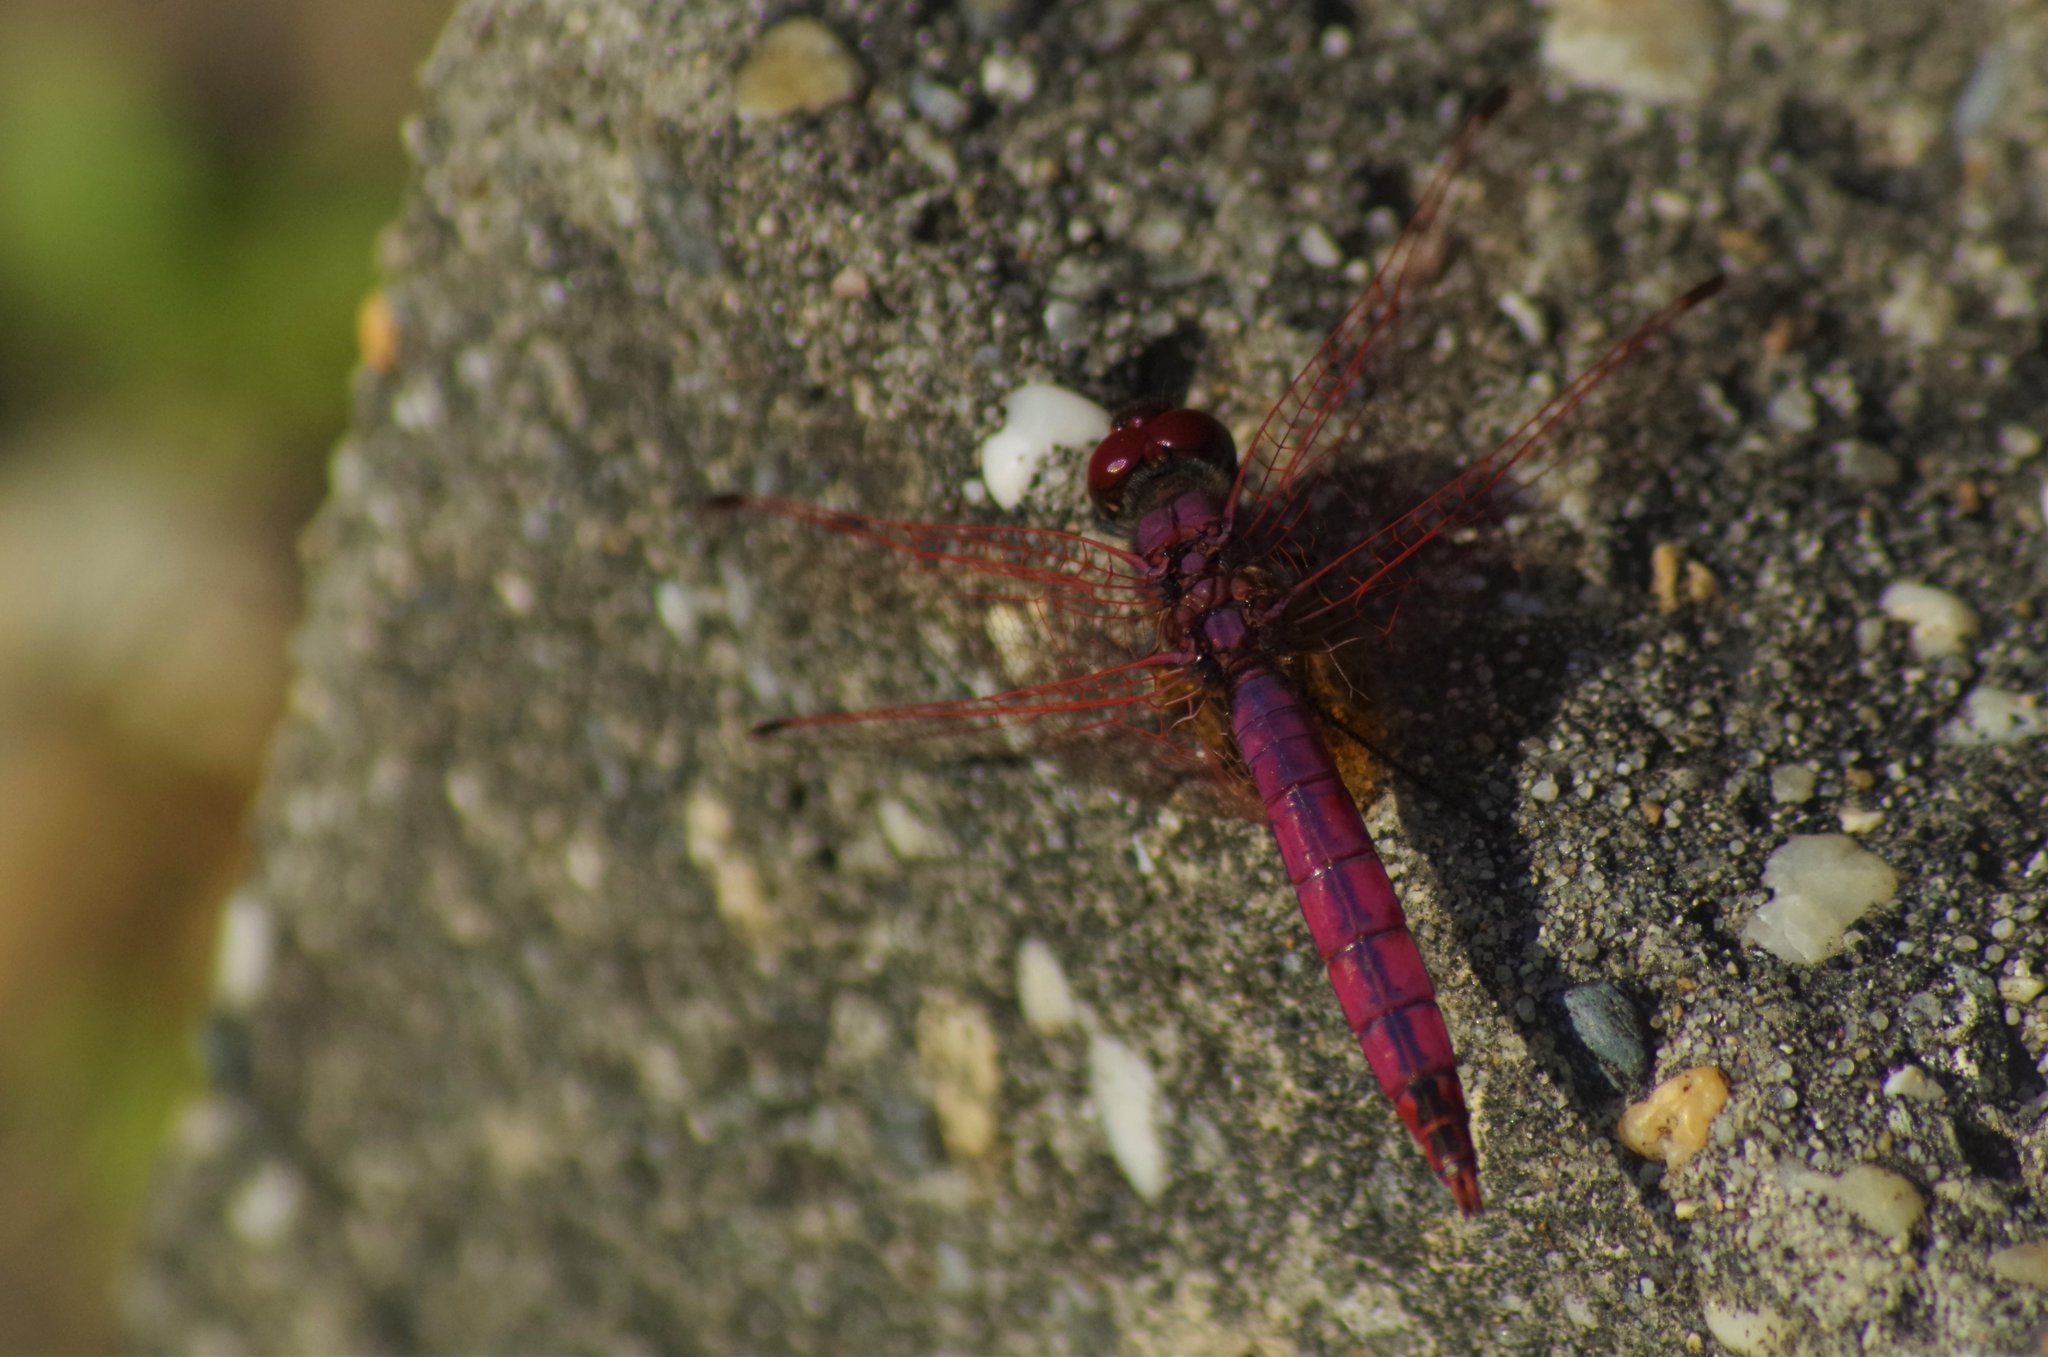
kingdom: Animalia
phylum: Arthropoda
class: Insecta
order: Odonata
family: Libellulidae
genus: Trithemis
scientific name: Trithemis annulata
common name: Violet dropwing
